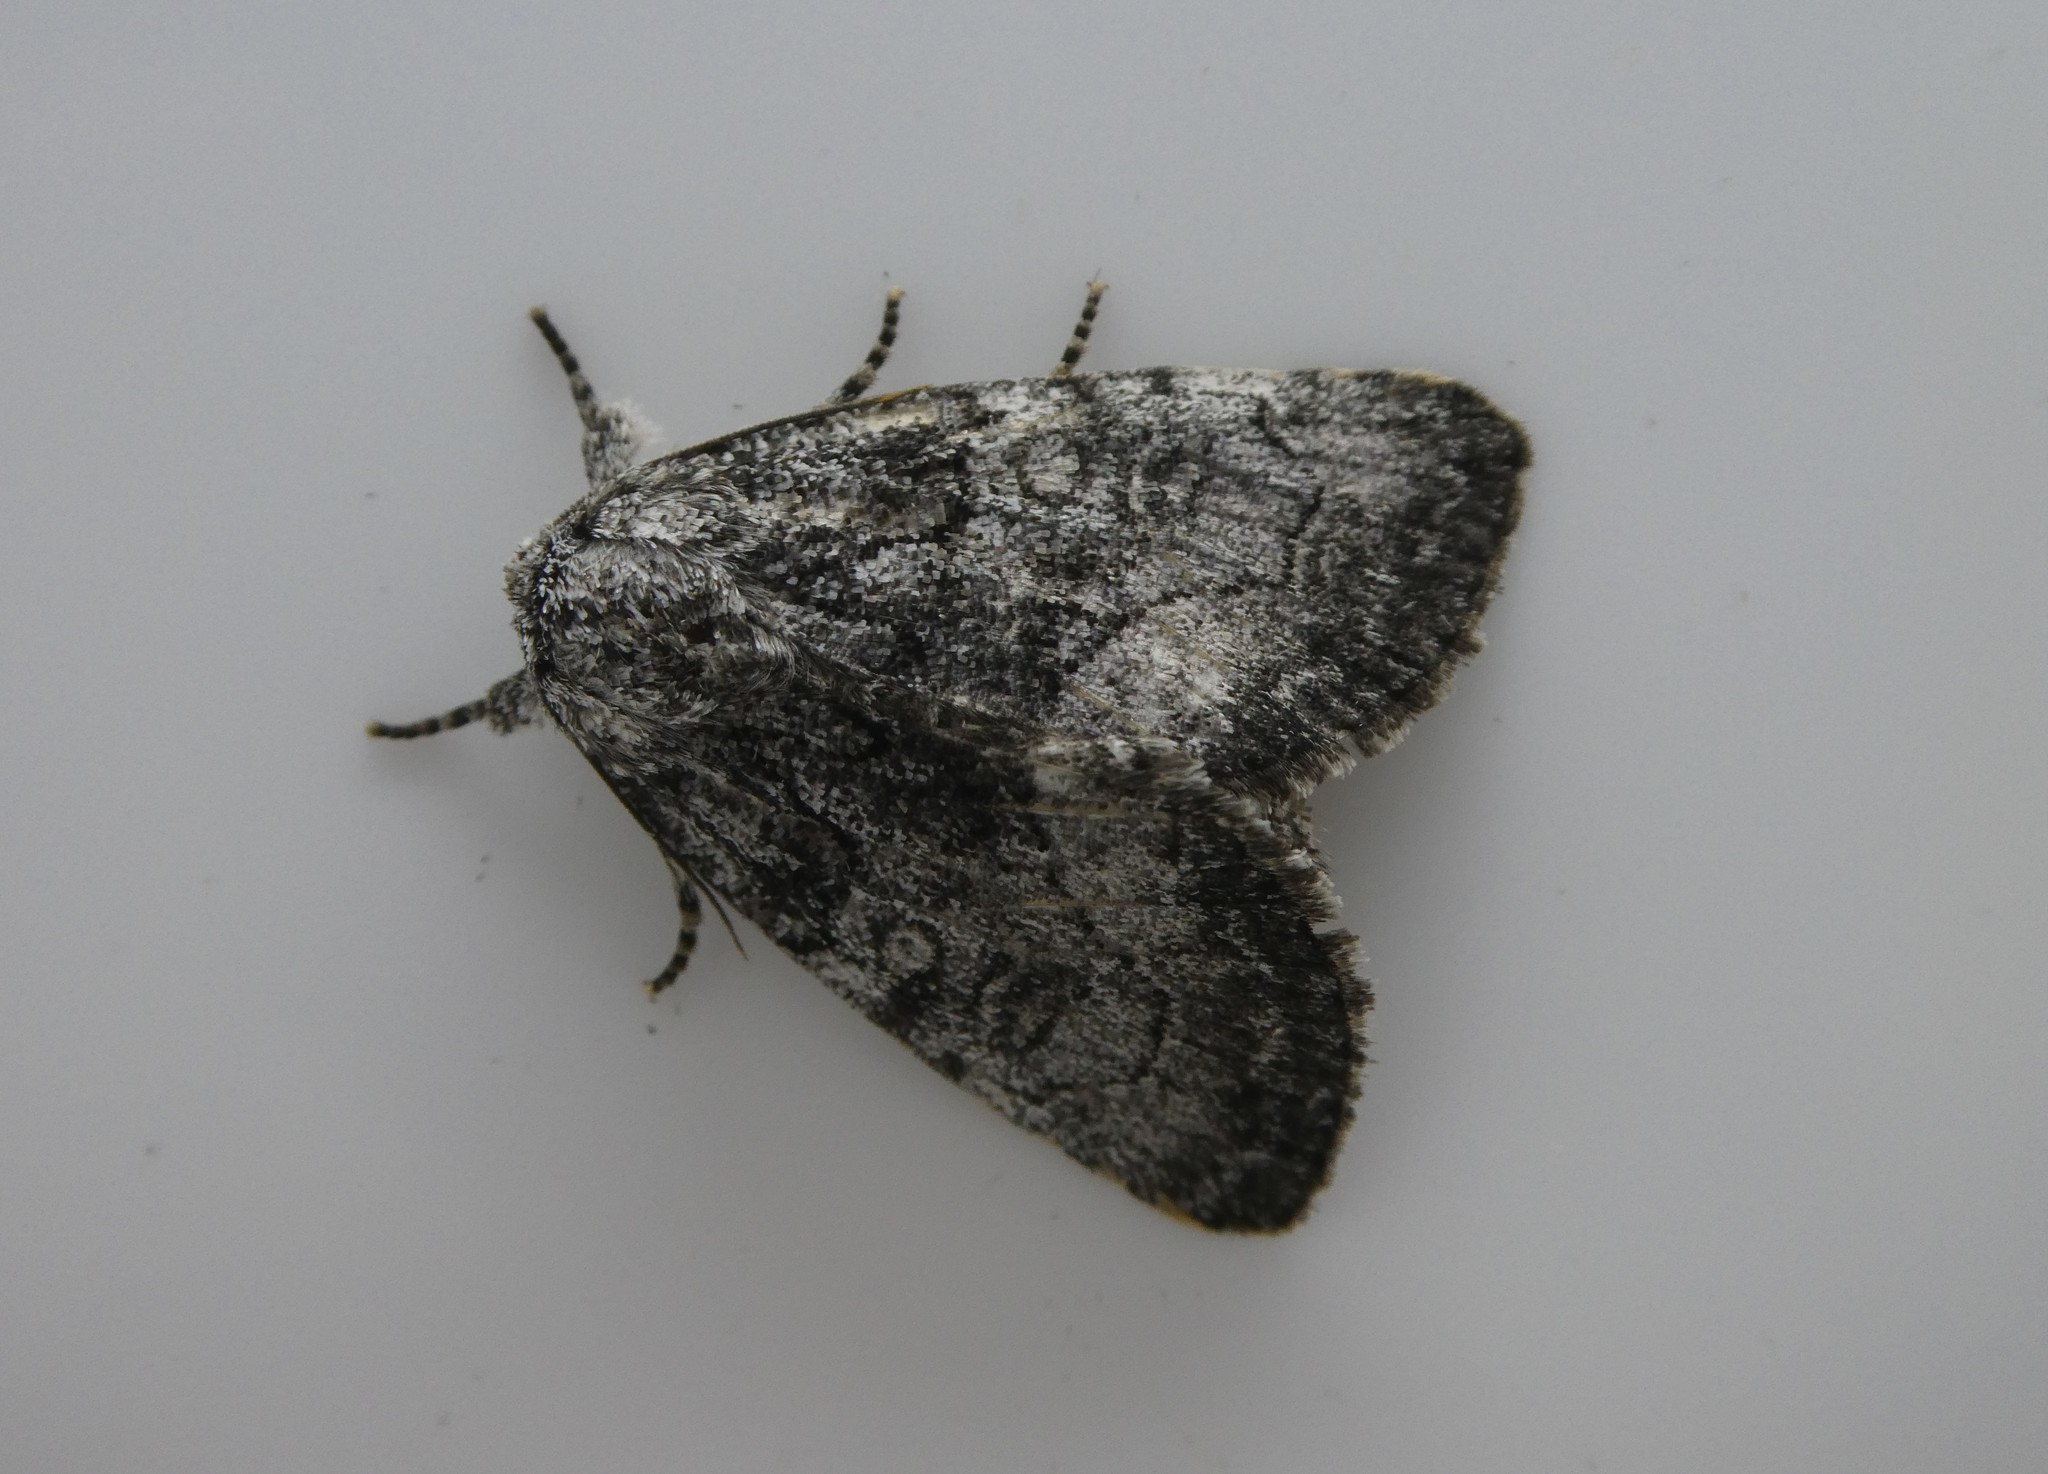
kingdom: Animalia
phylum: Arthropoda
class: Insecta
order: Lepidoptera
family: Noctuidae
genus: Raphia
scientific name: Raphia frater
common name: Brother
